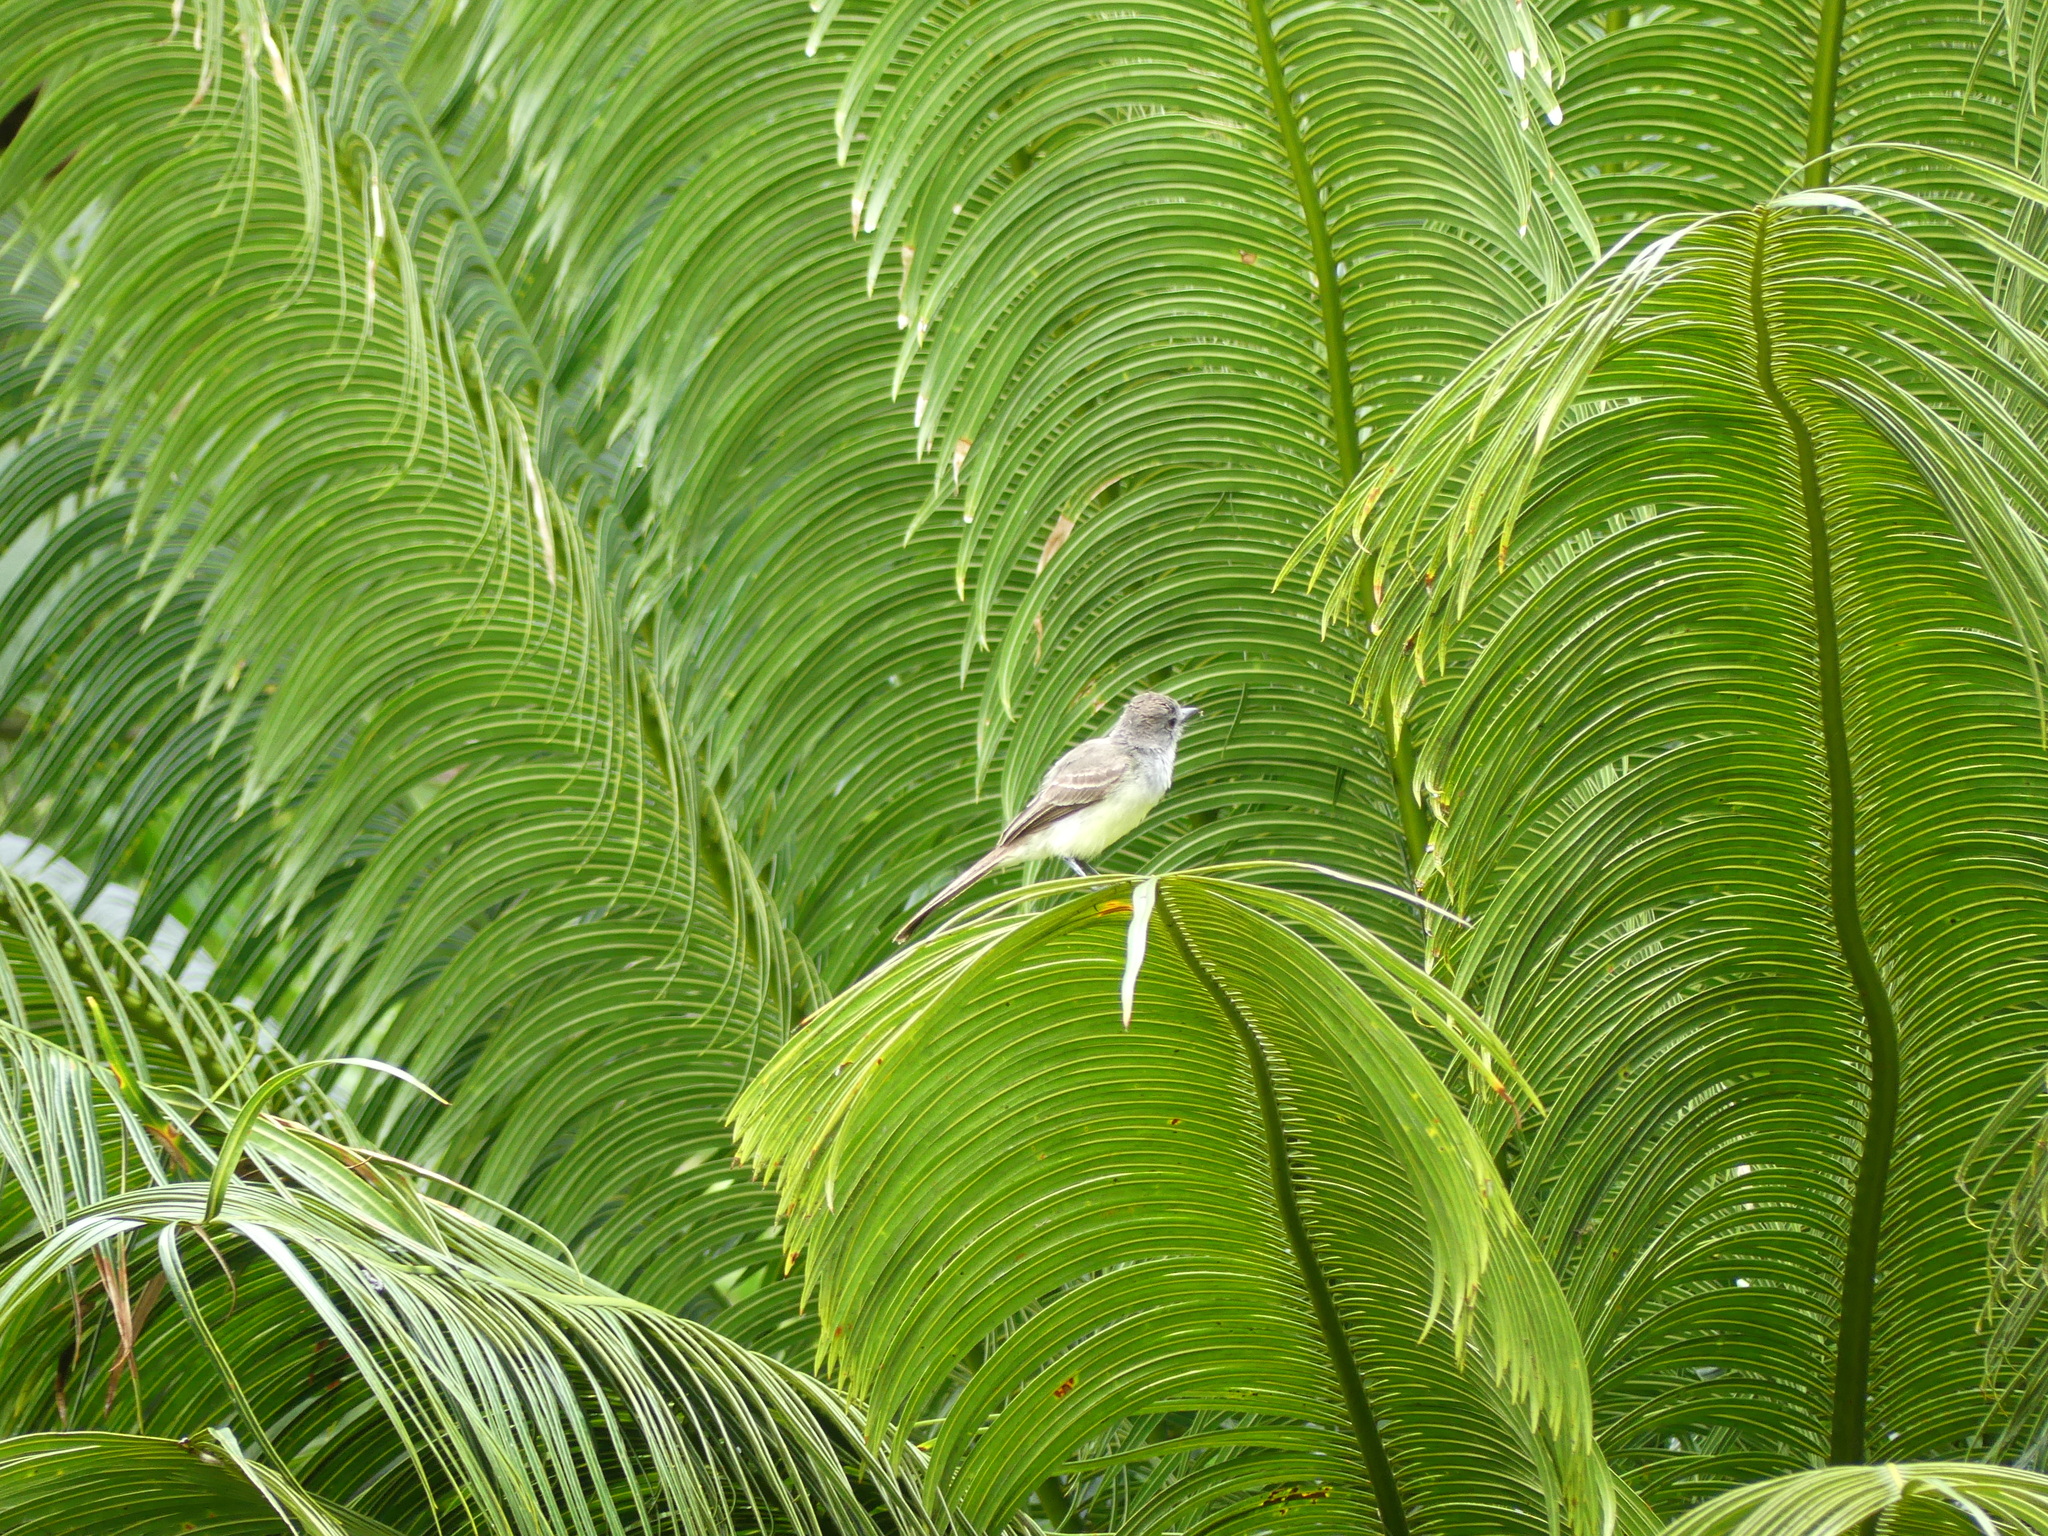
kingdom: Animalia
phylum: Chordata
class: Aves
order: Passeriformes
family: Tyrannidae
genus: Myiarchus
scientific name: Myiarchus ferox
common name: Short-crested flycatcher
